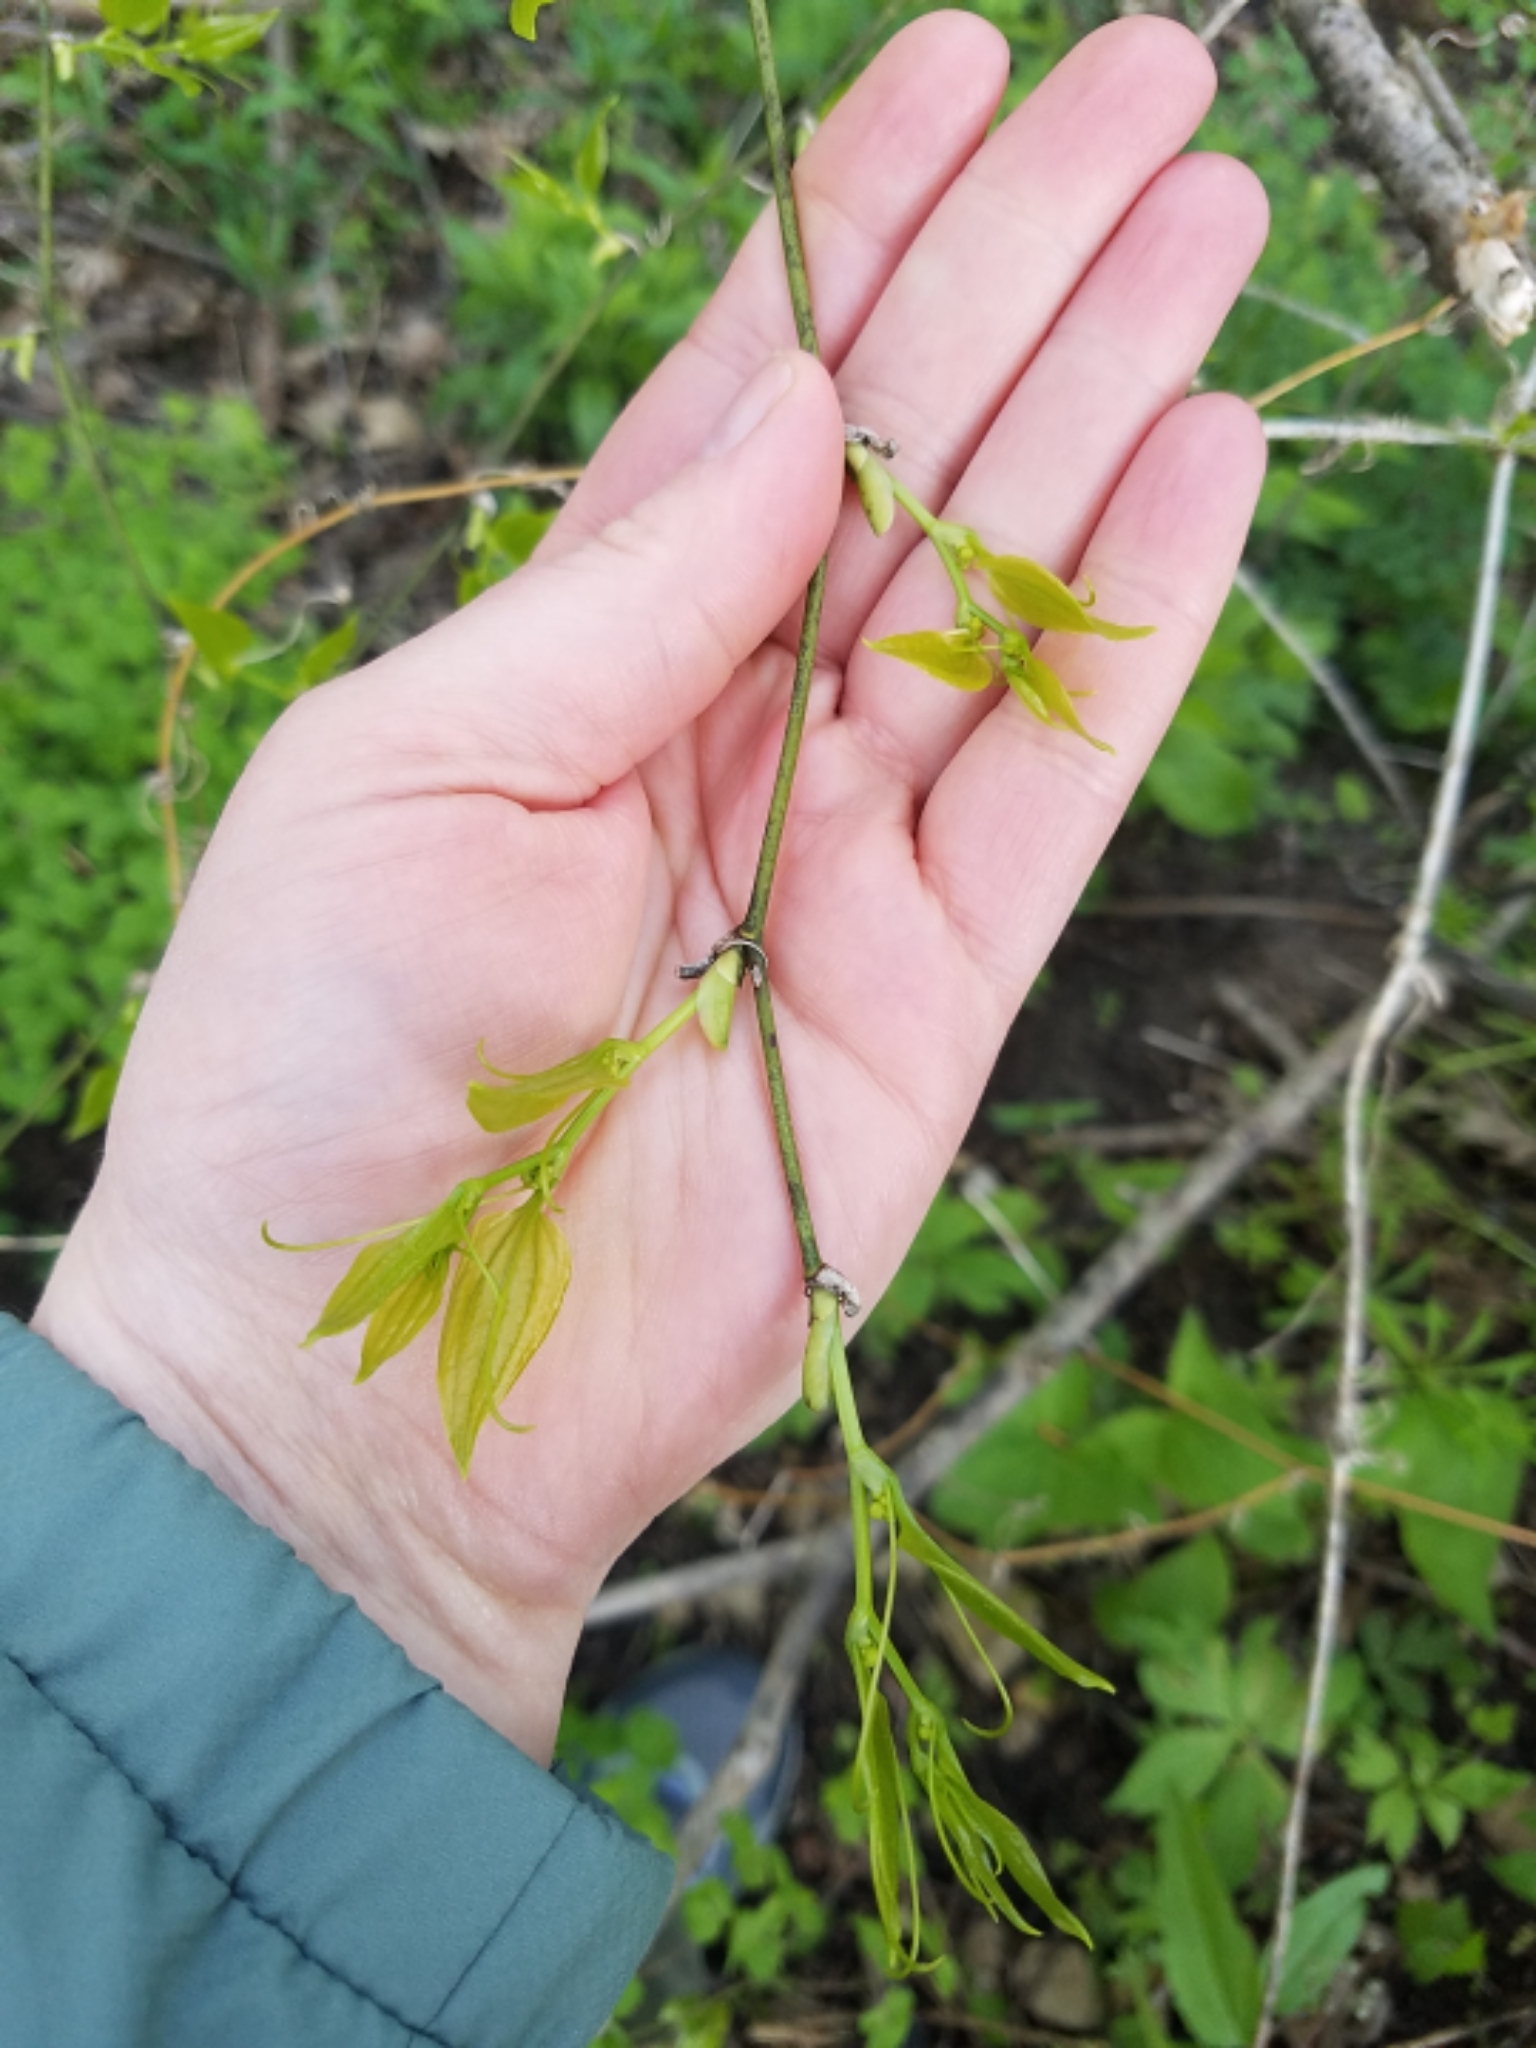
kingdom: Plantae
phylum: Tracheophyta
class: Liliopsida
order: Liliales
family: Smilacaceae
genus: Smilax
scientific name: Smilax tamnoides
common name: Hellfetter
